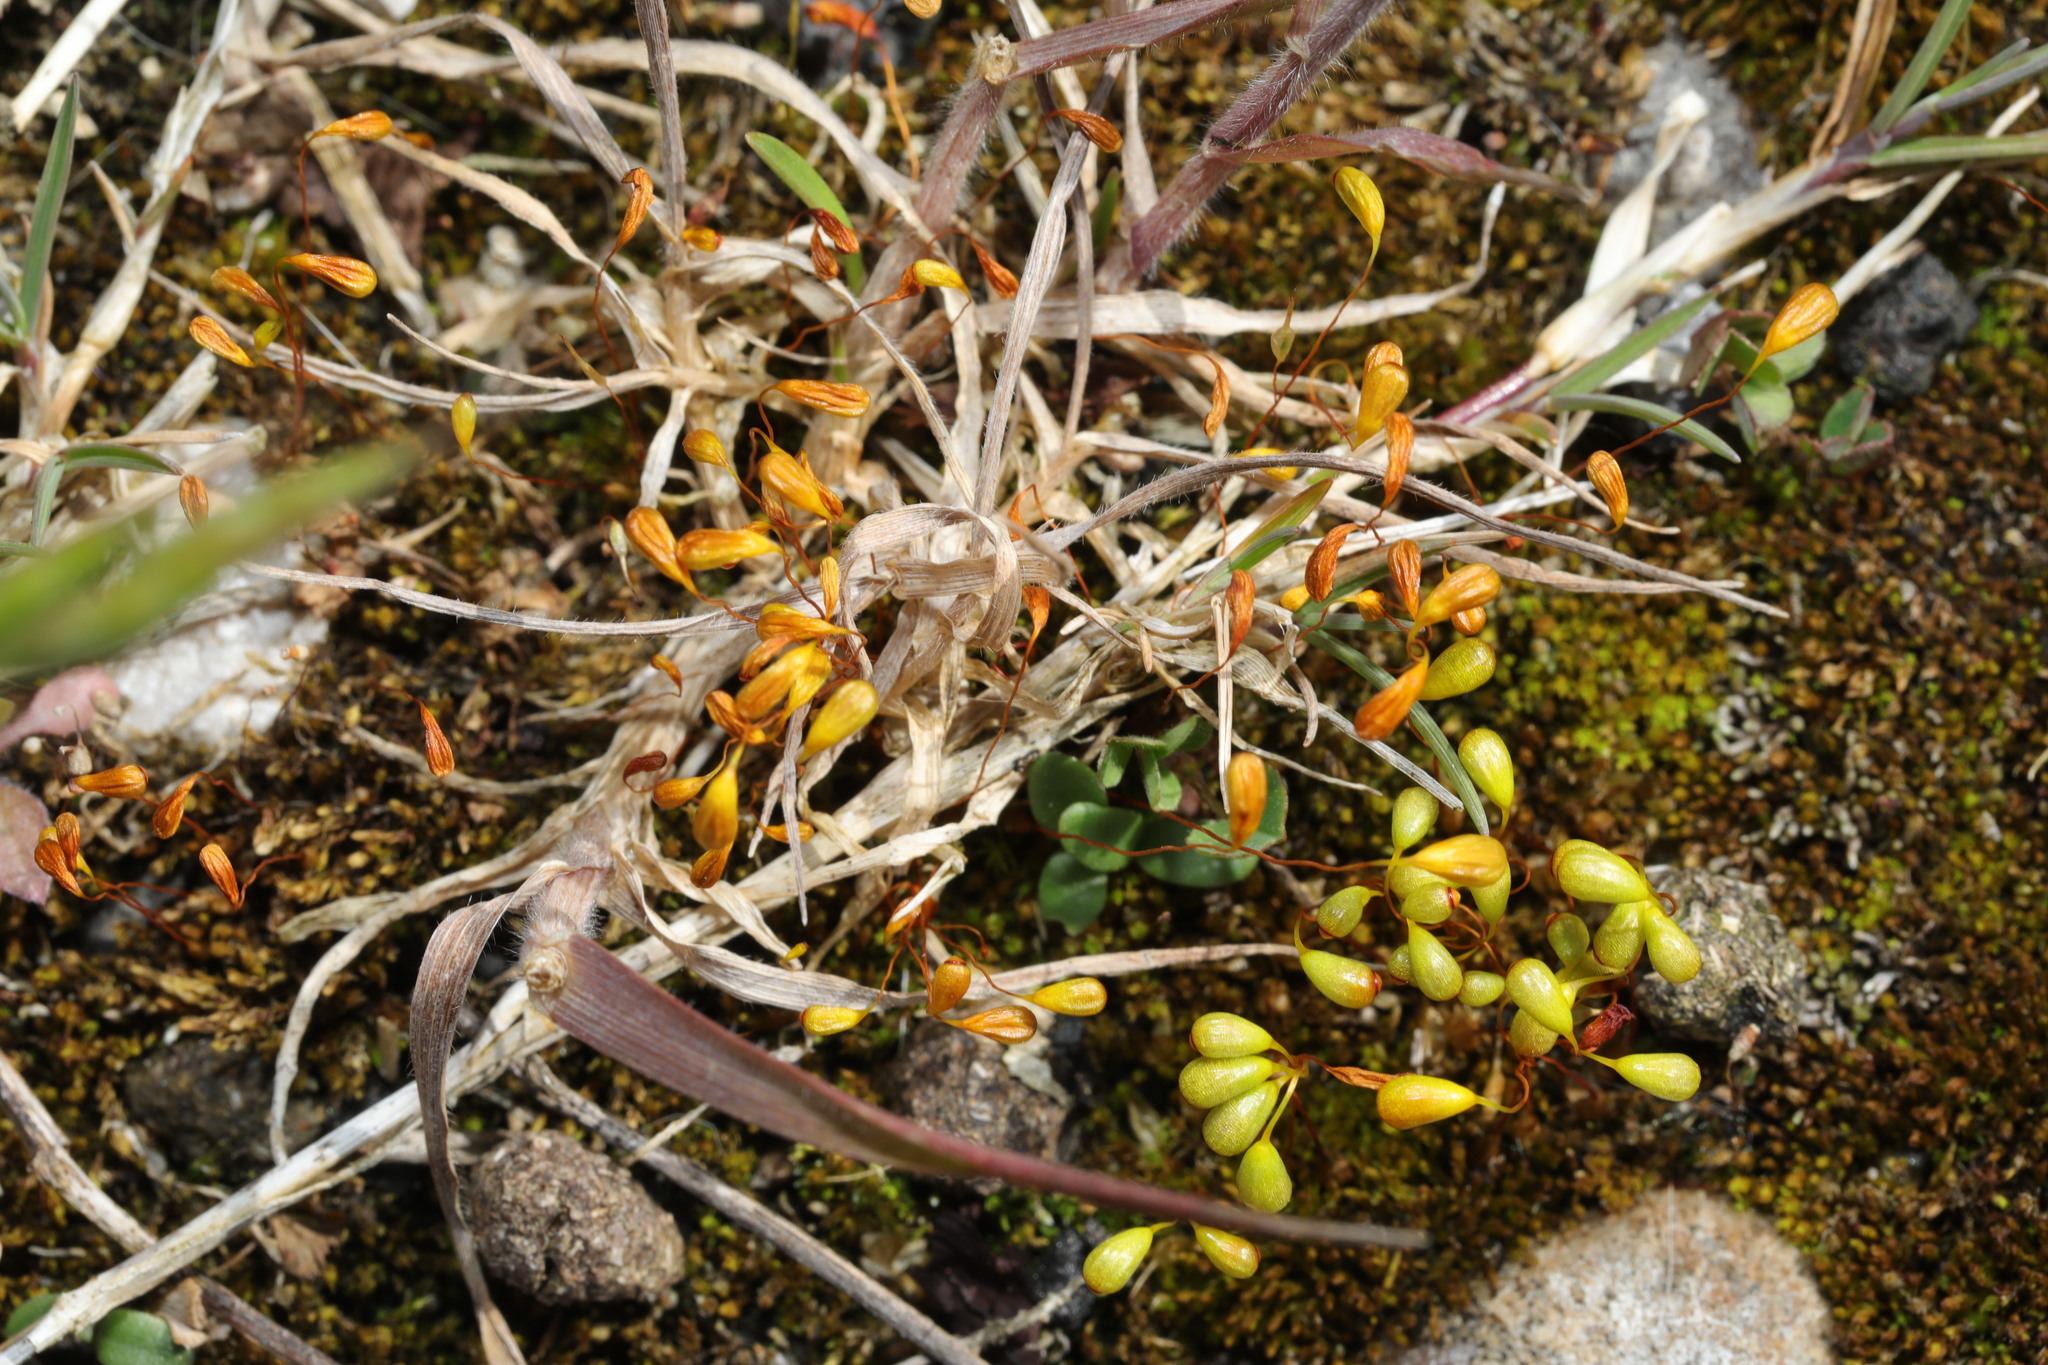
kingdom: Plantae
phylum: Bryophyta
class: Bryopsida
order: Funariales
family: Funariaceae
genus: Funaria
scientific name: Funaria hygrometrica
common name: Common cord moss
